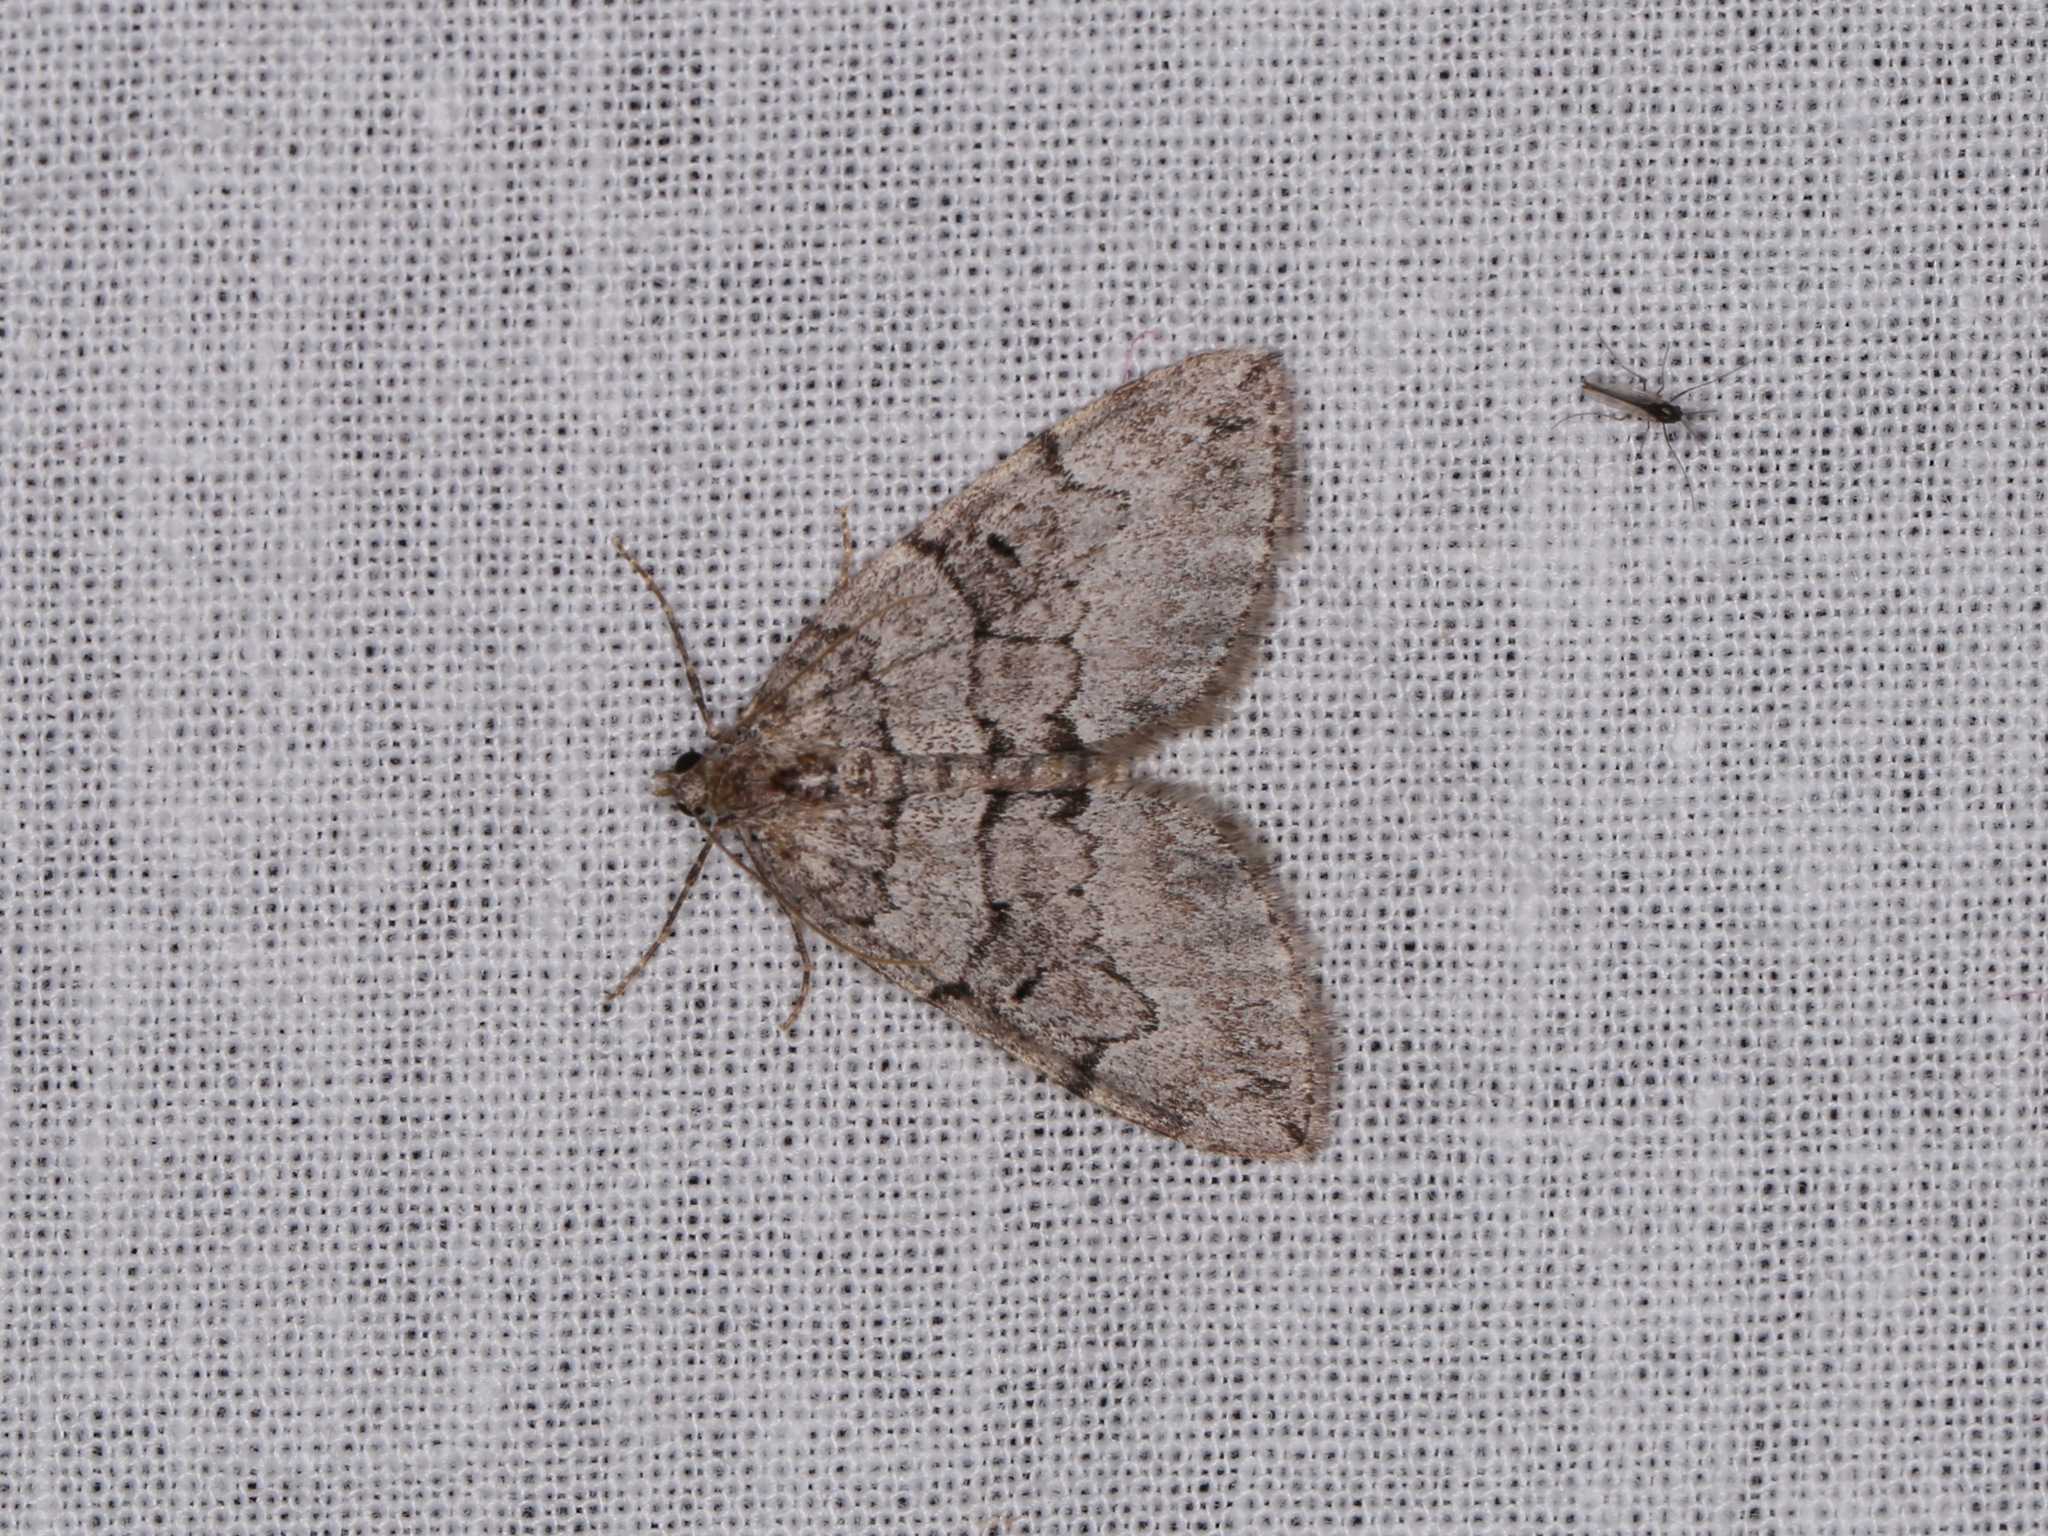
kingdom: Animalia
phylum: Arthropoda
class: Insecta
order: Lepidoptera
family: Geometridae
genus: Thera
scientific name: Thera otisi
